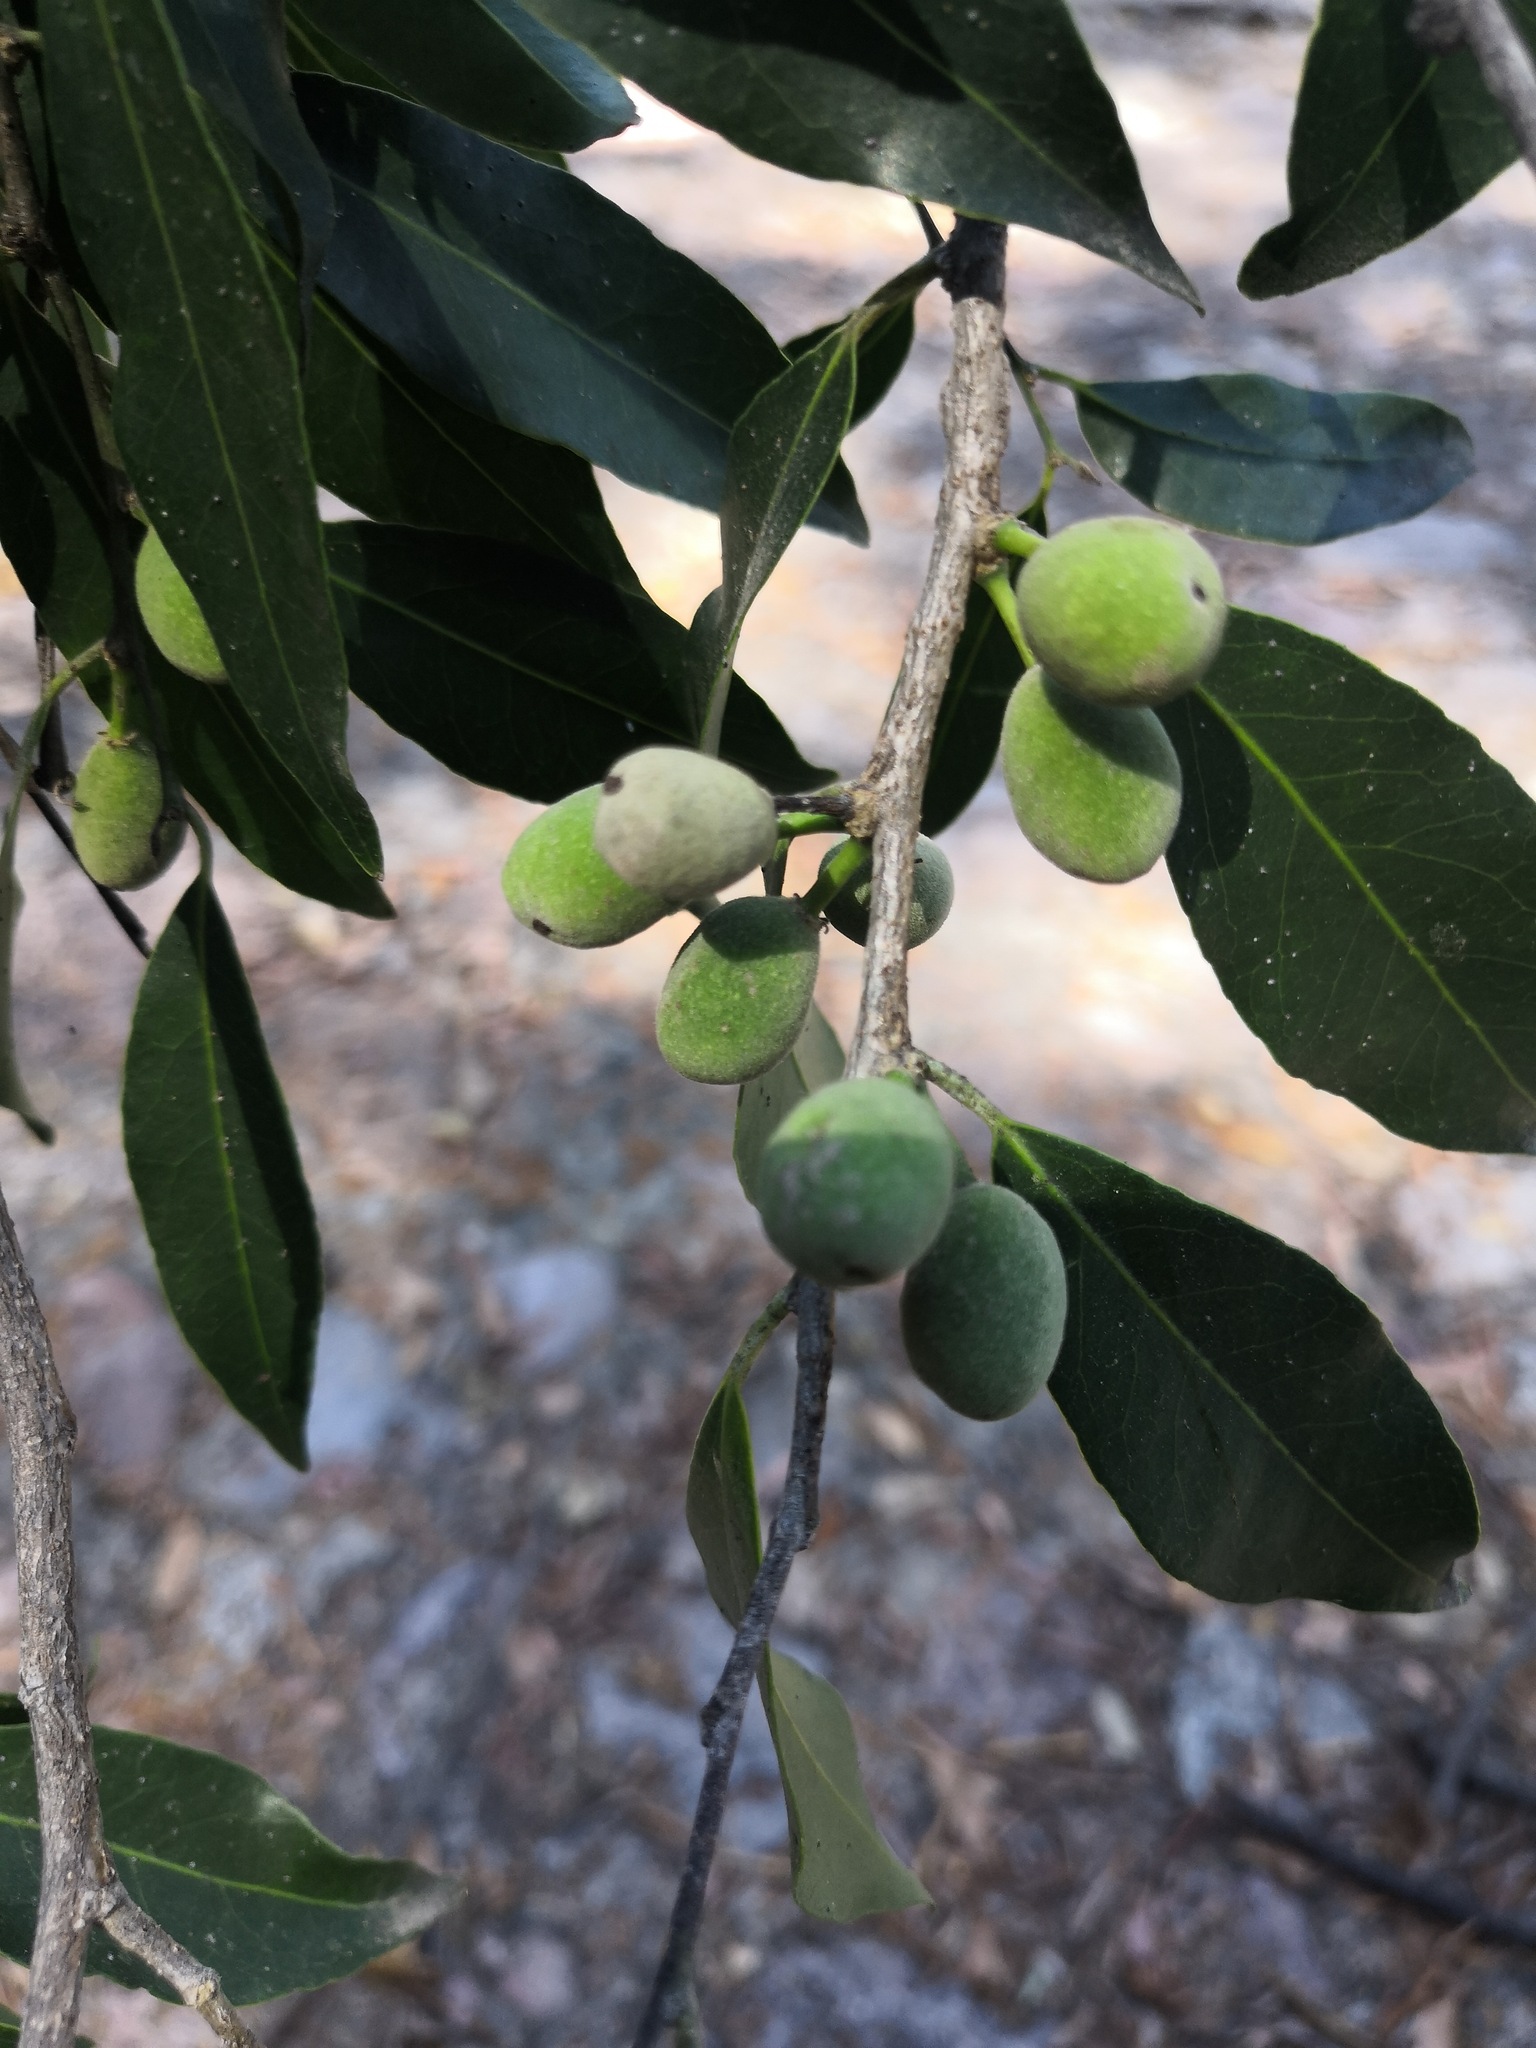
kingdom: Plantae
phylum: Tracheophyta
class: Magnoliopsida
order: Malpighiales
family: Putranjivaceae
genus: Drypetes
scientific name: Drypetes gentryi
